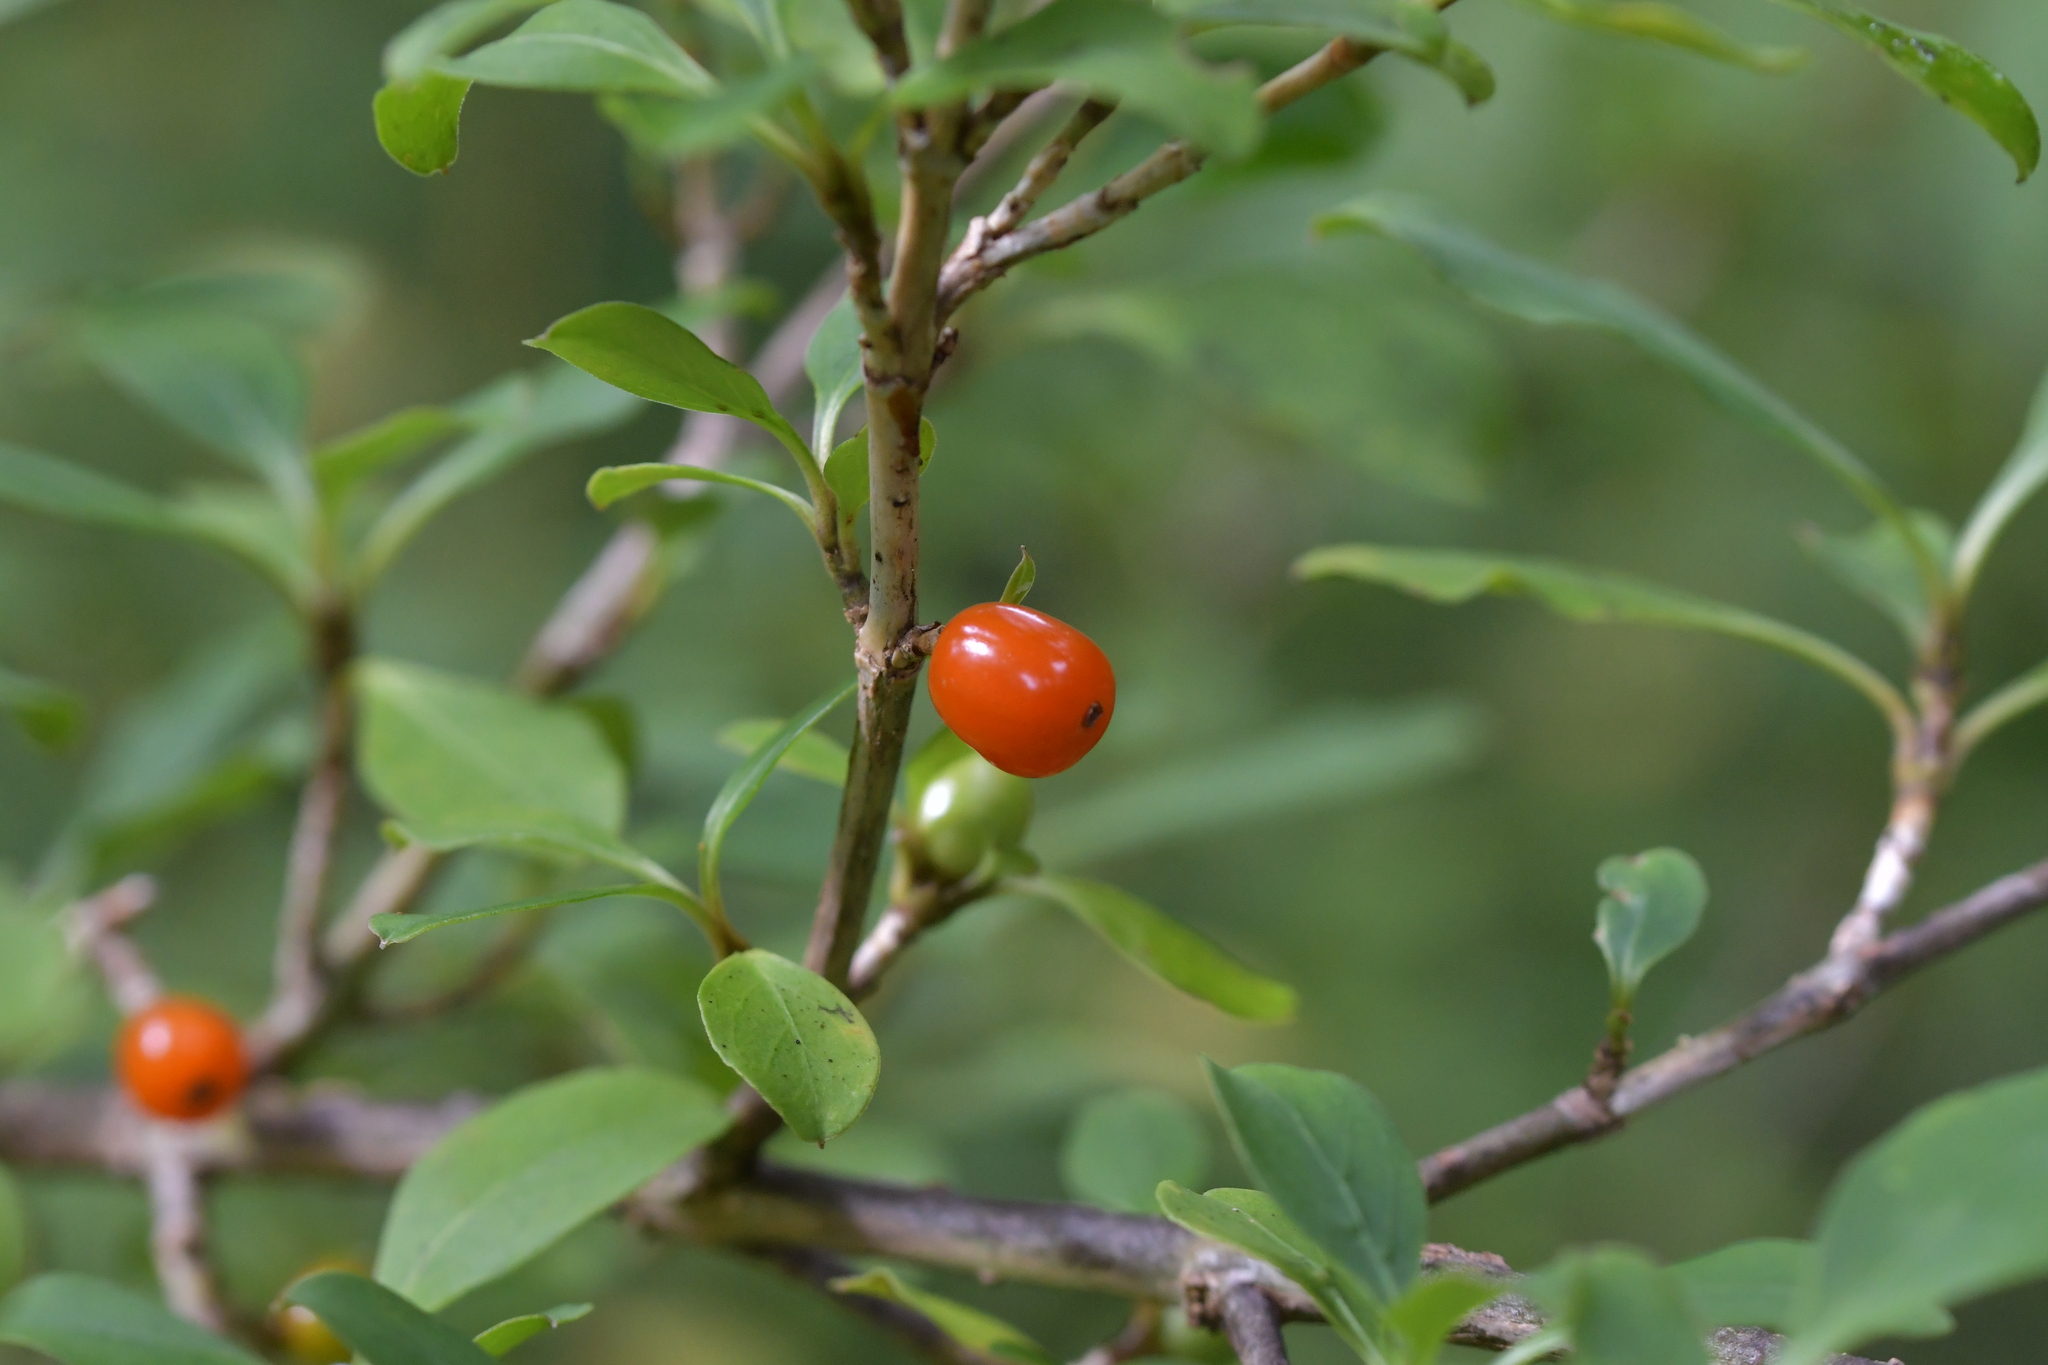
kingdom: Plantae
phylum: Tracheophyta
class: Magnoliopsida
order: Gentianales
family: Rubiaceae
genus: Coprosma
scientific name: Coprosma foetidissima
